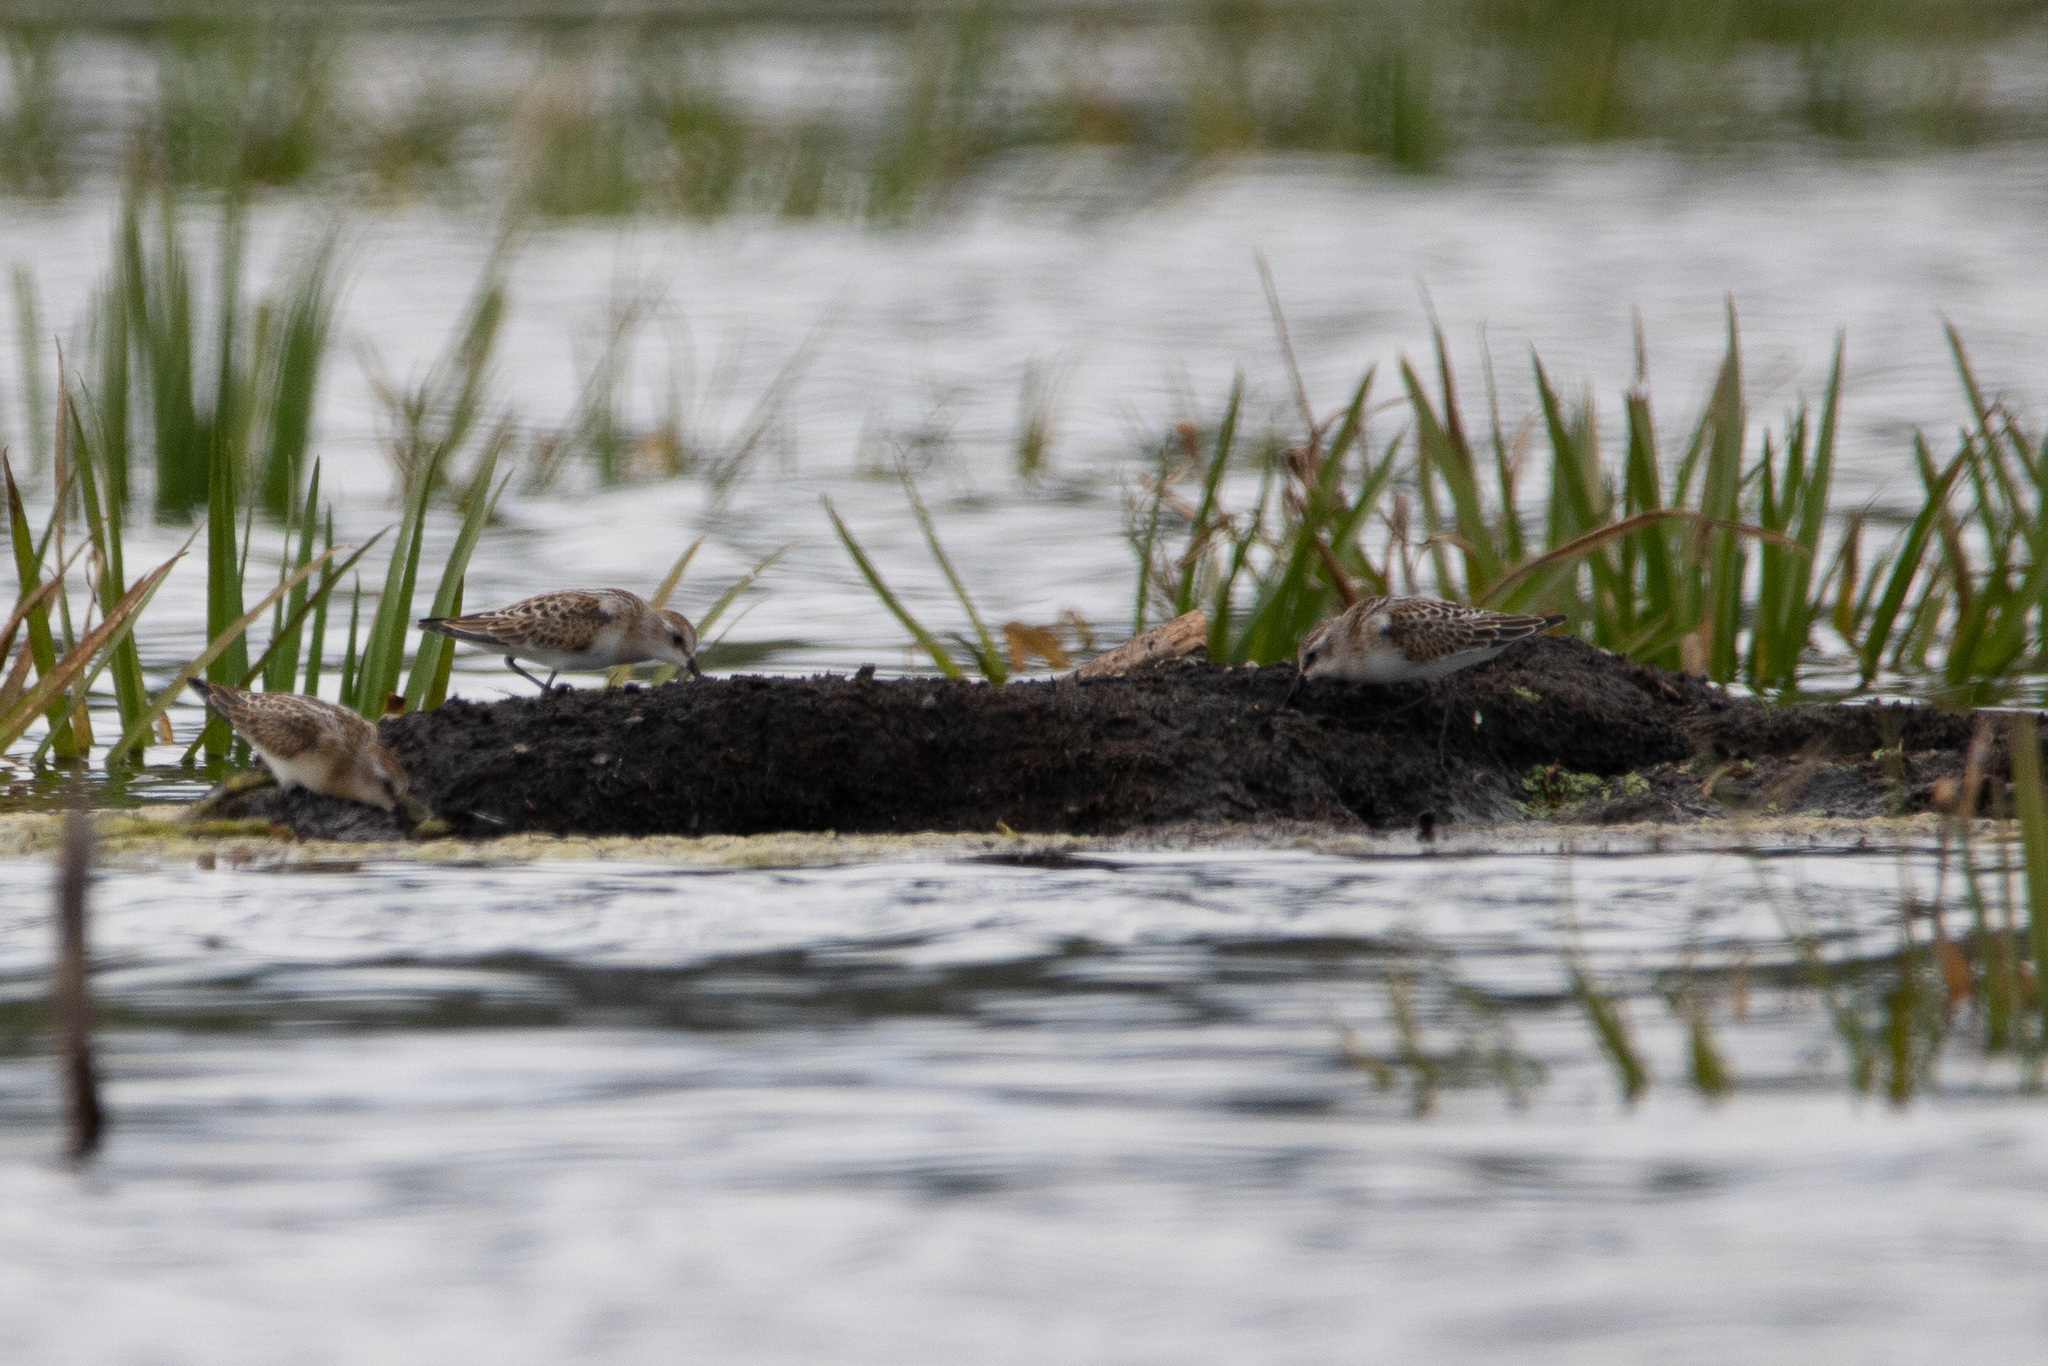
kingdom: Animalia
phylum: Chordata
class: Aves
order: Charadriiformes
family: Scolopacidae
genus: Calidris
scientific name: Calidris minuta
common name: Little stint
